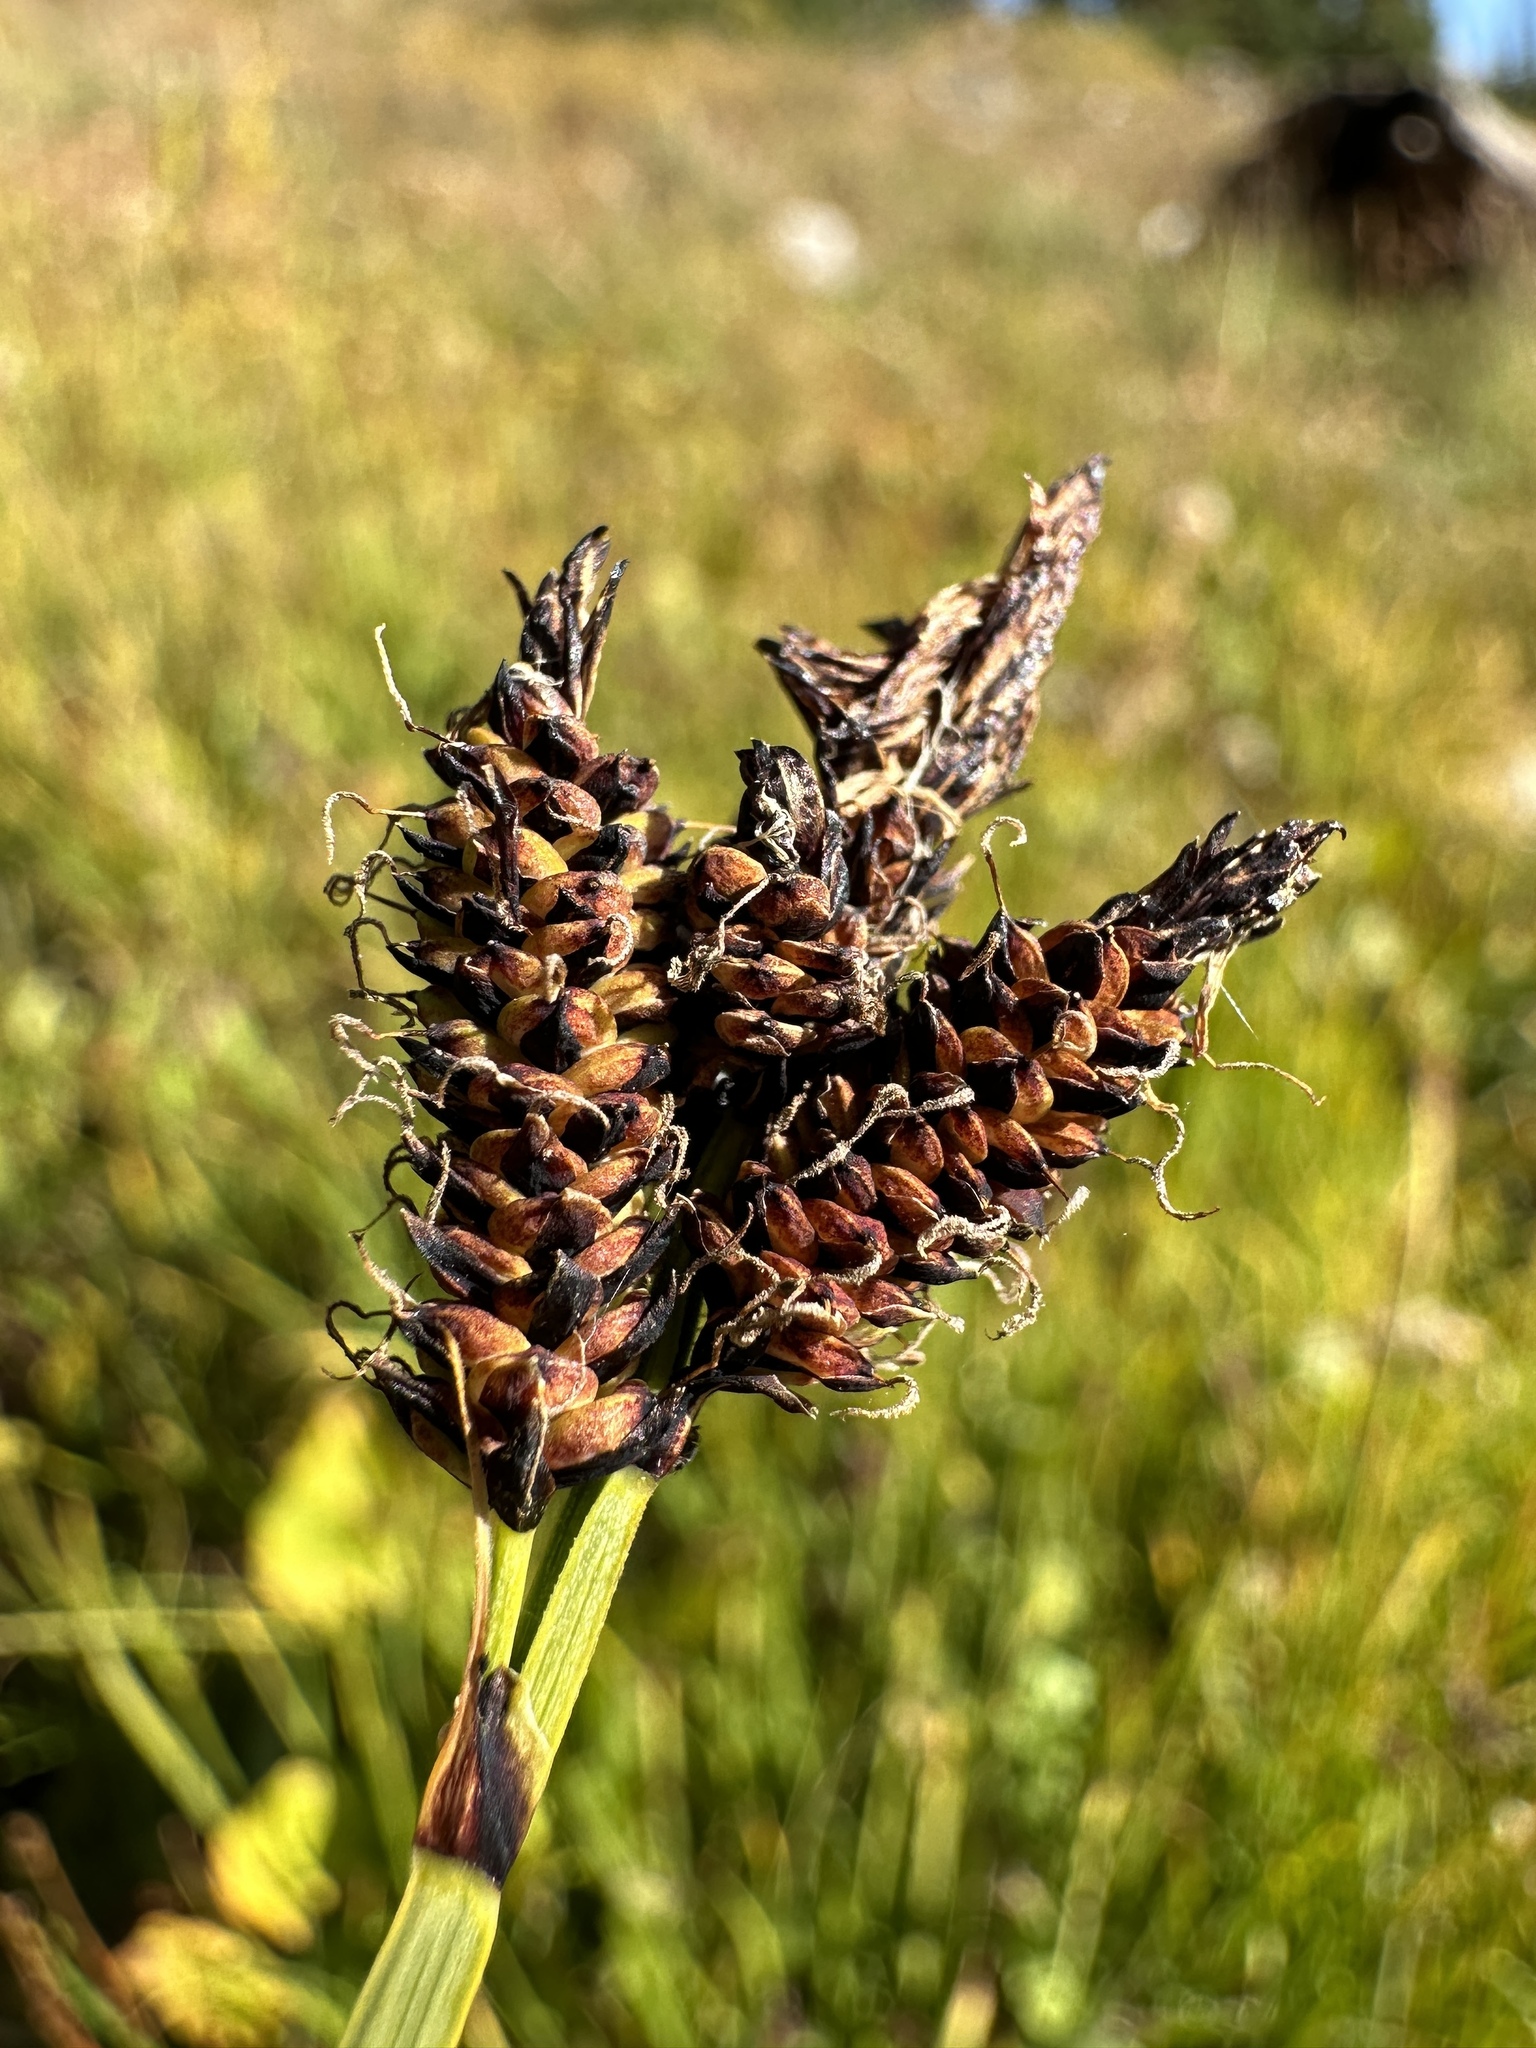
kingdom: Plantae
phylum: Tracheophyta
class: Liliopsida
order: Poales
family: Cyperaceae
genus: Carex
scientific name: Carex scopulorum
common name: Holm's rocky mountain sedge
